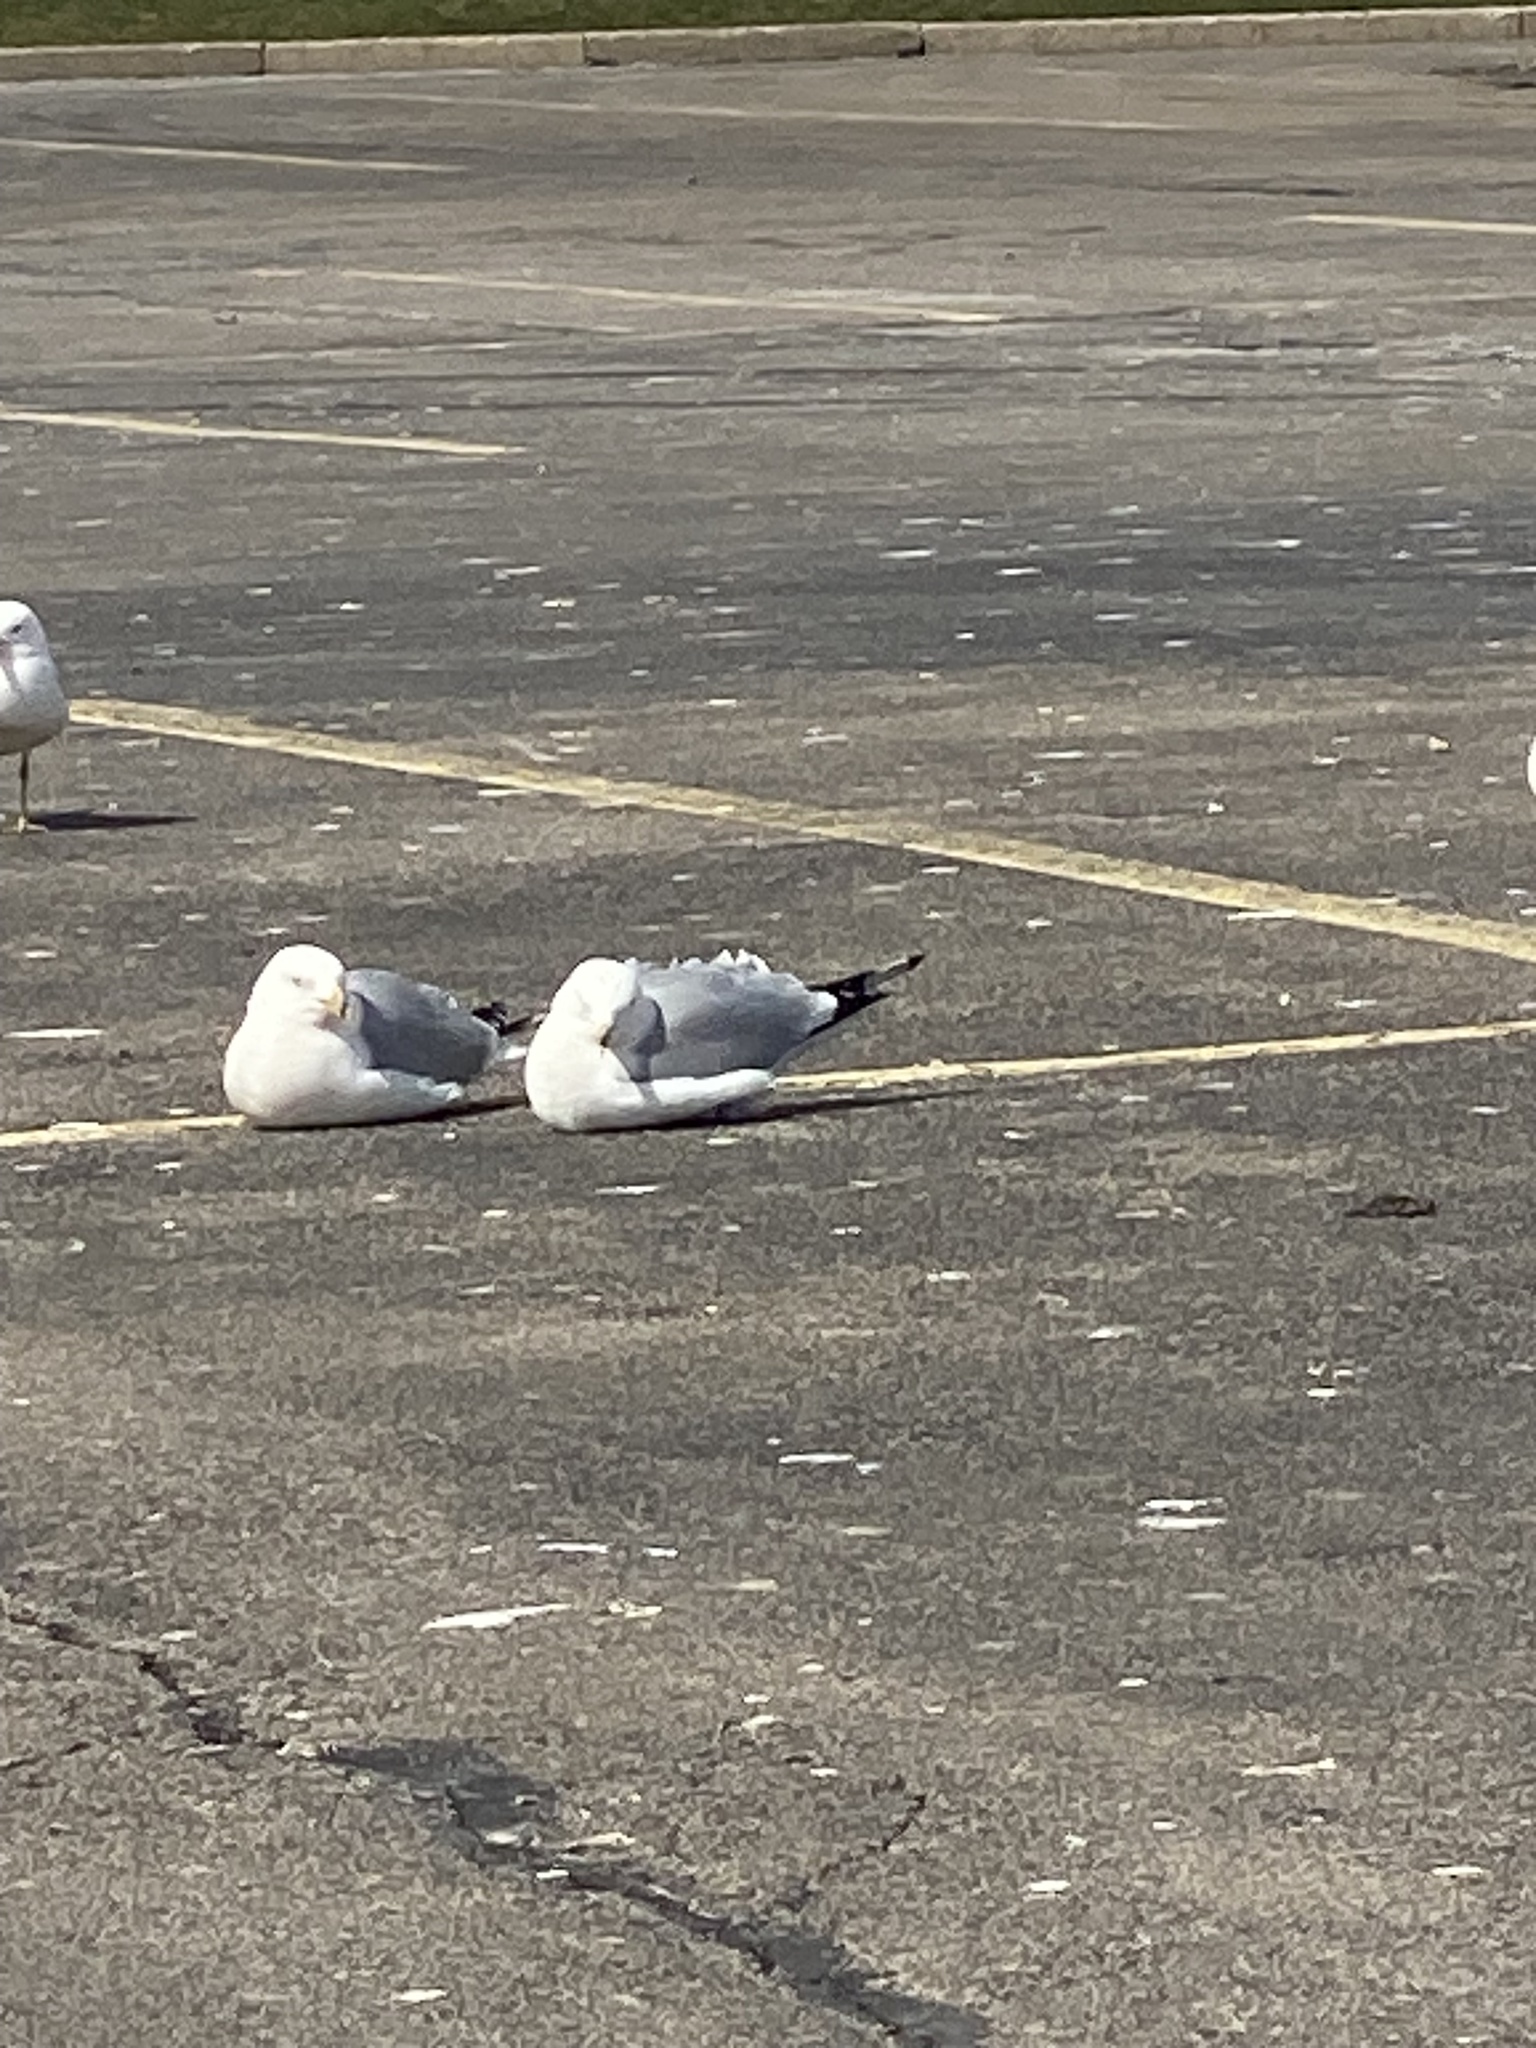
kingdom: Animalia
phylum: Chordata
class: Aves
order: Charadriiformes
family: Laridae
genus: Larus
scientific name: Larus delawarensis
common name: Ring-billed gull
